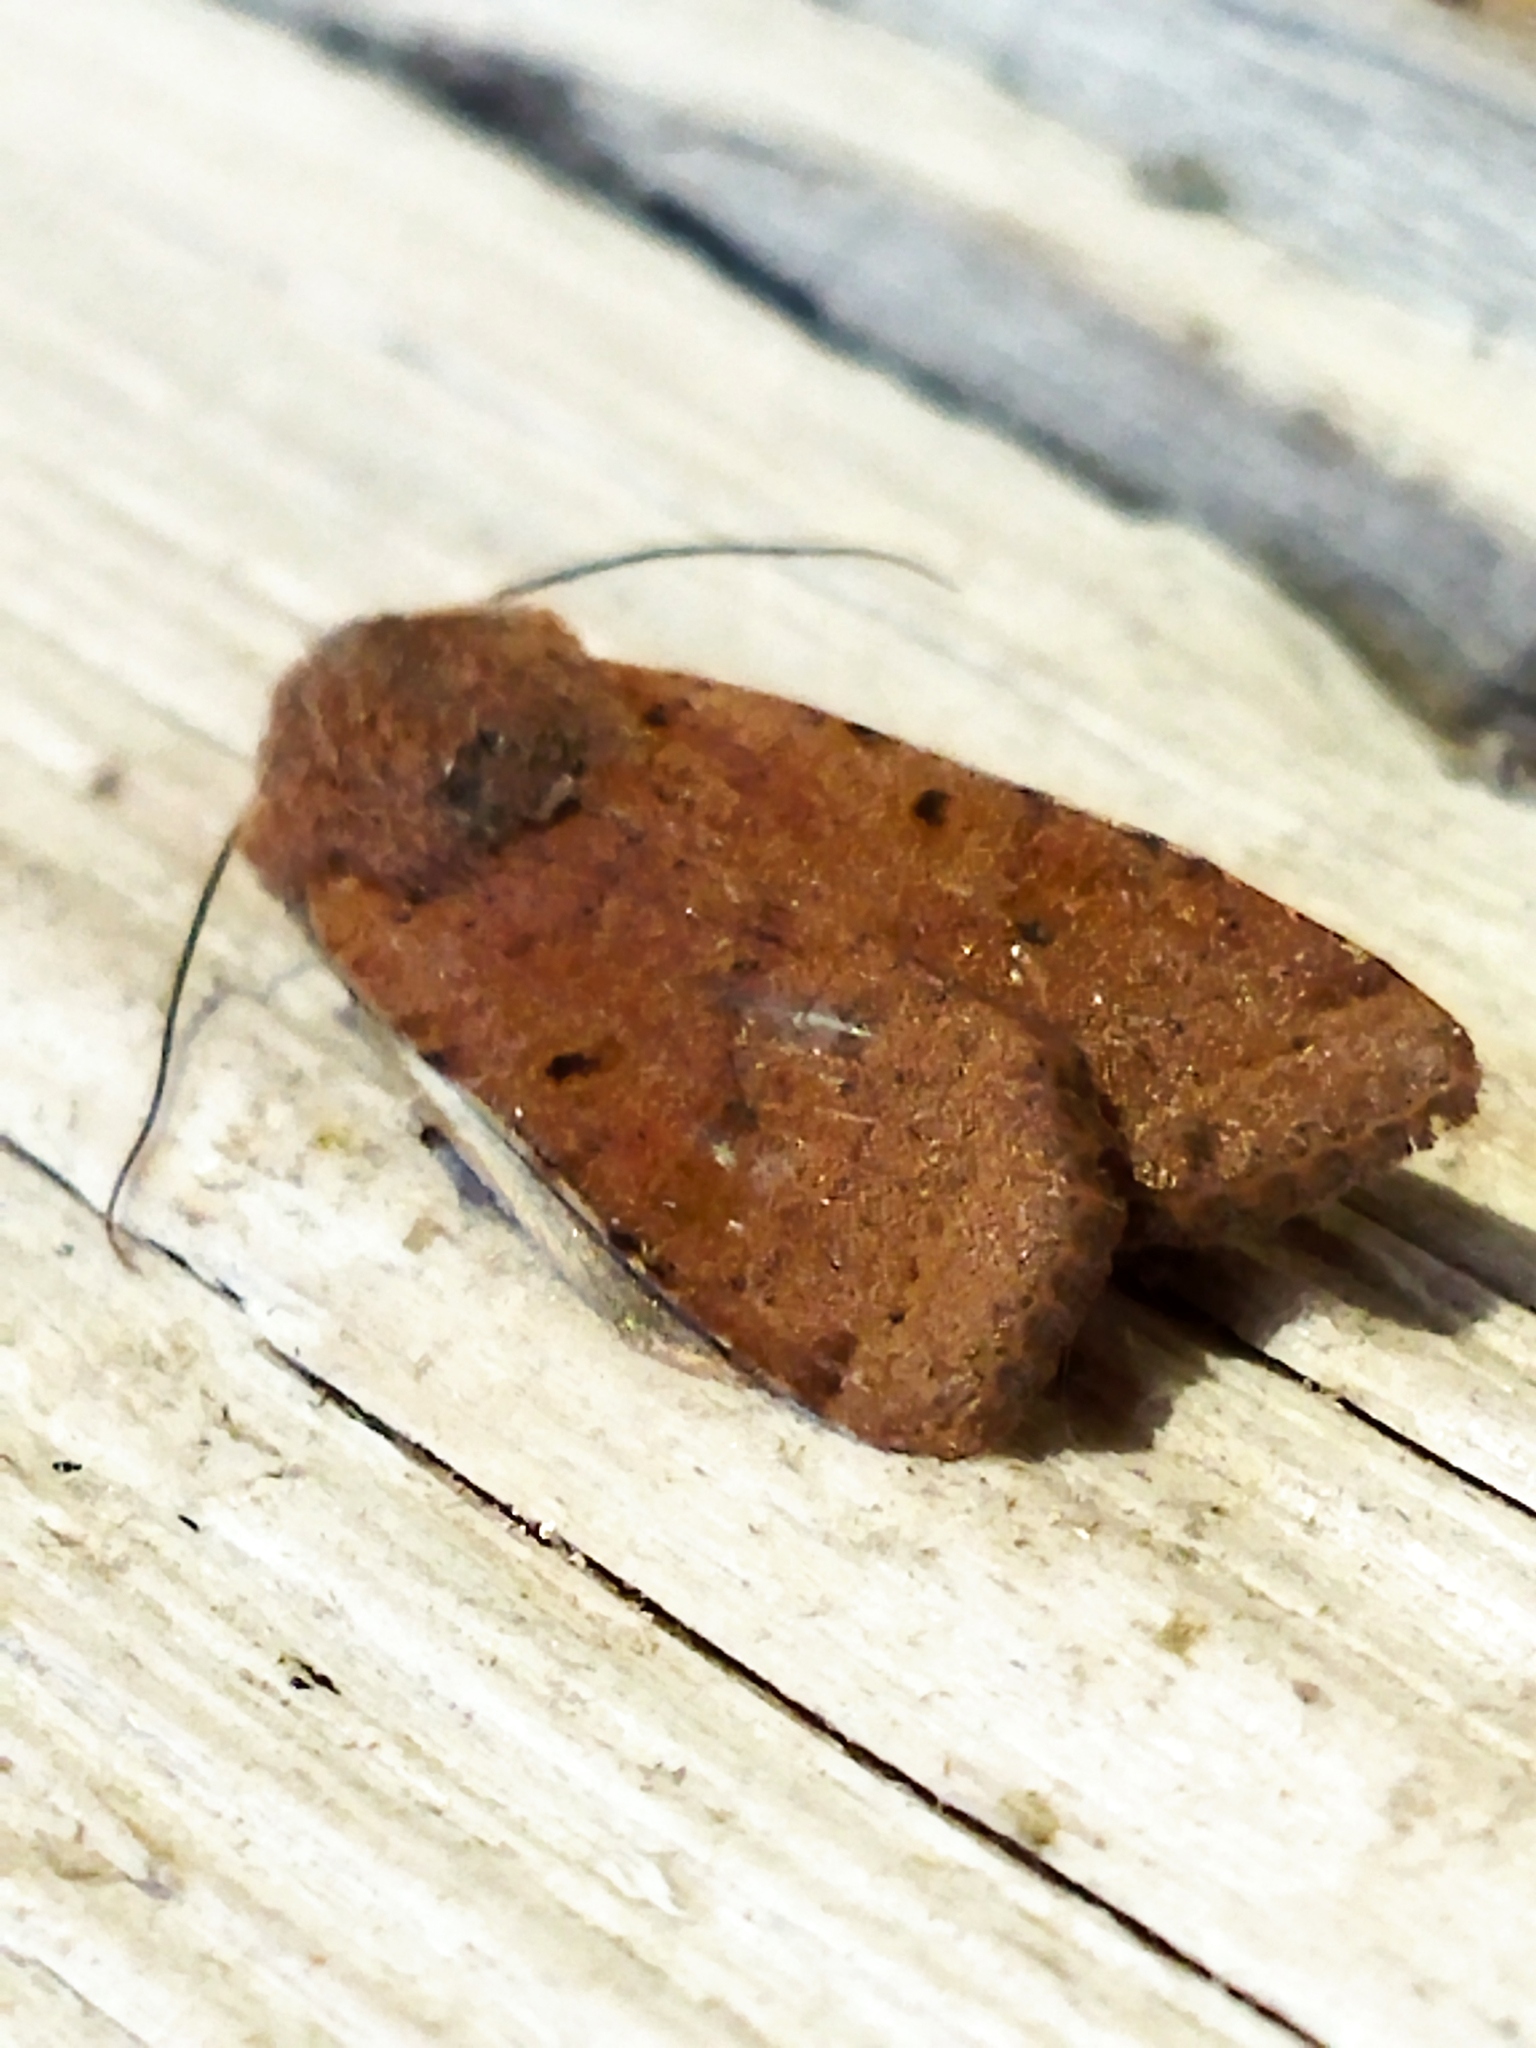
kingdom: Animalia
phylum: Arthropoda
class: Insecta
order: Lepidoptera
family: Noctuidae
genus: Agrochola
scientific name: Agrochola lychnidis
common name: Beaded chestnut
